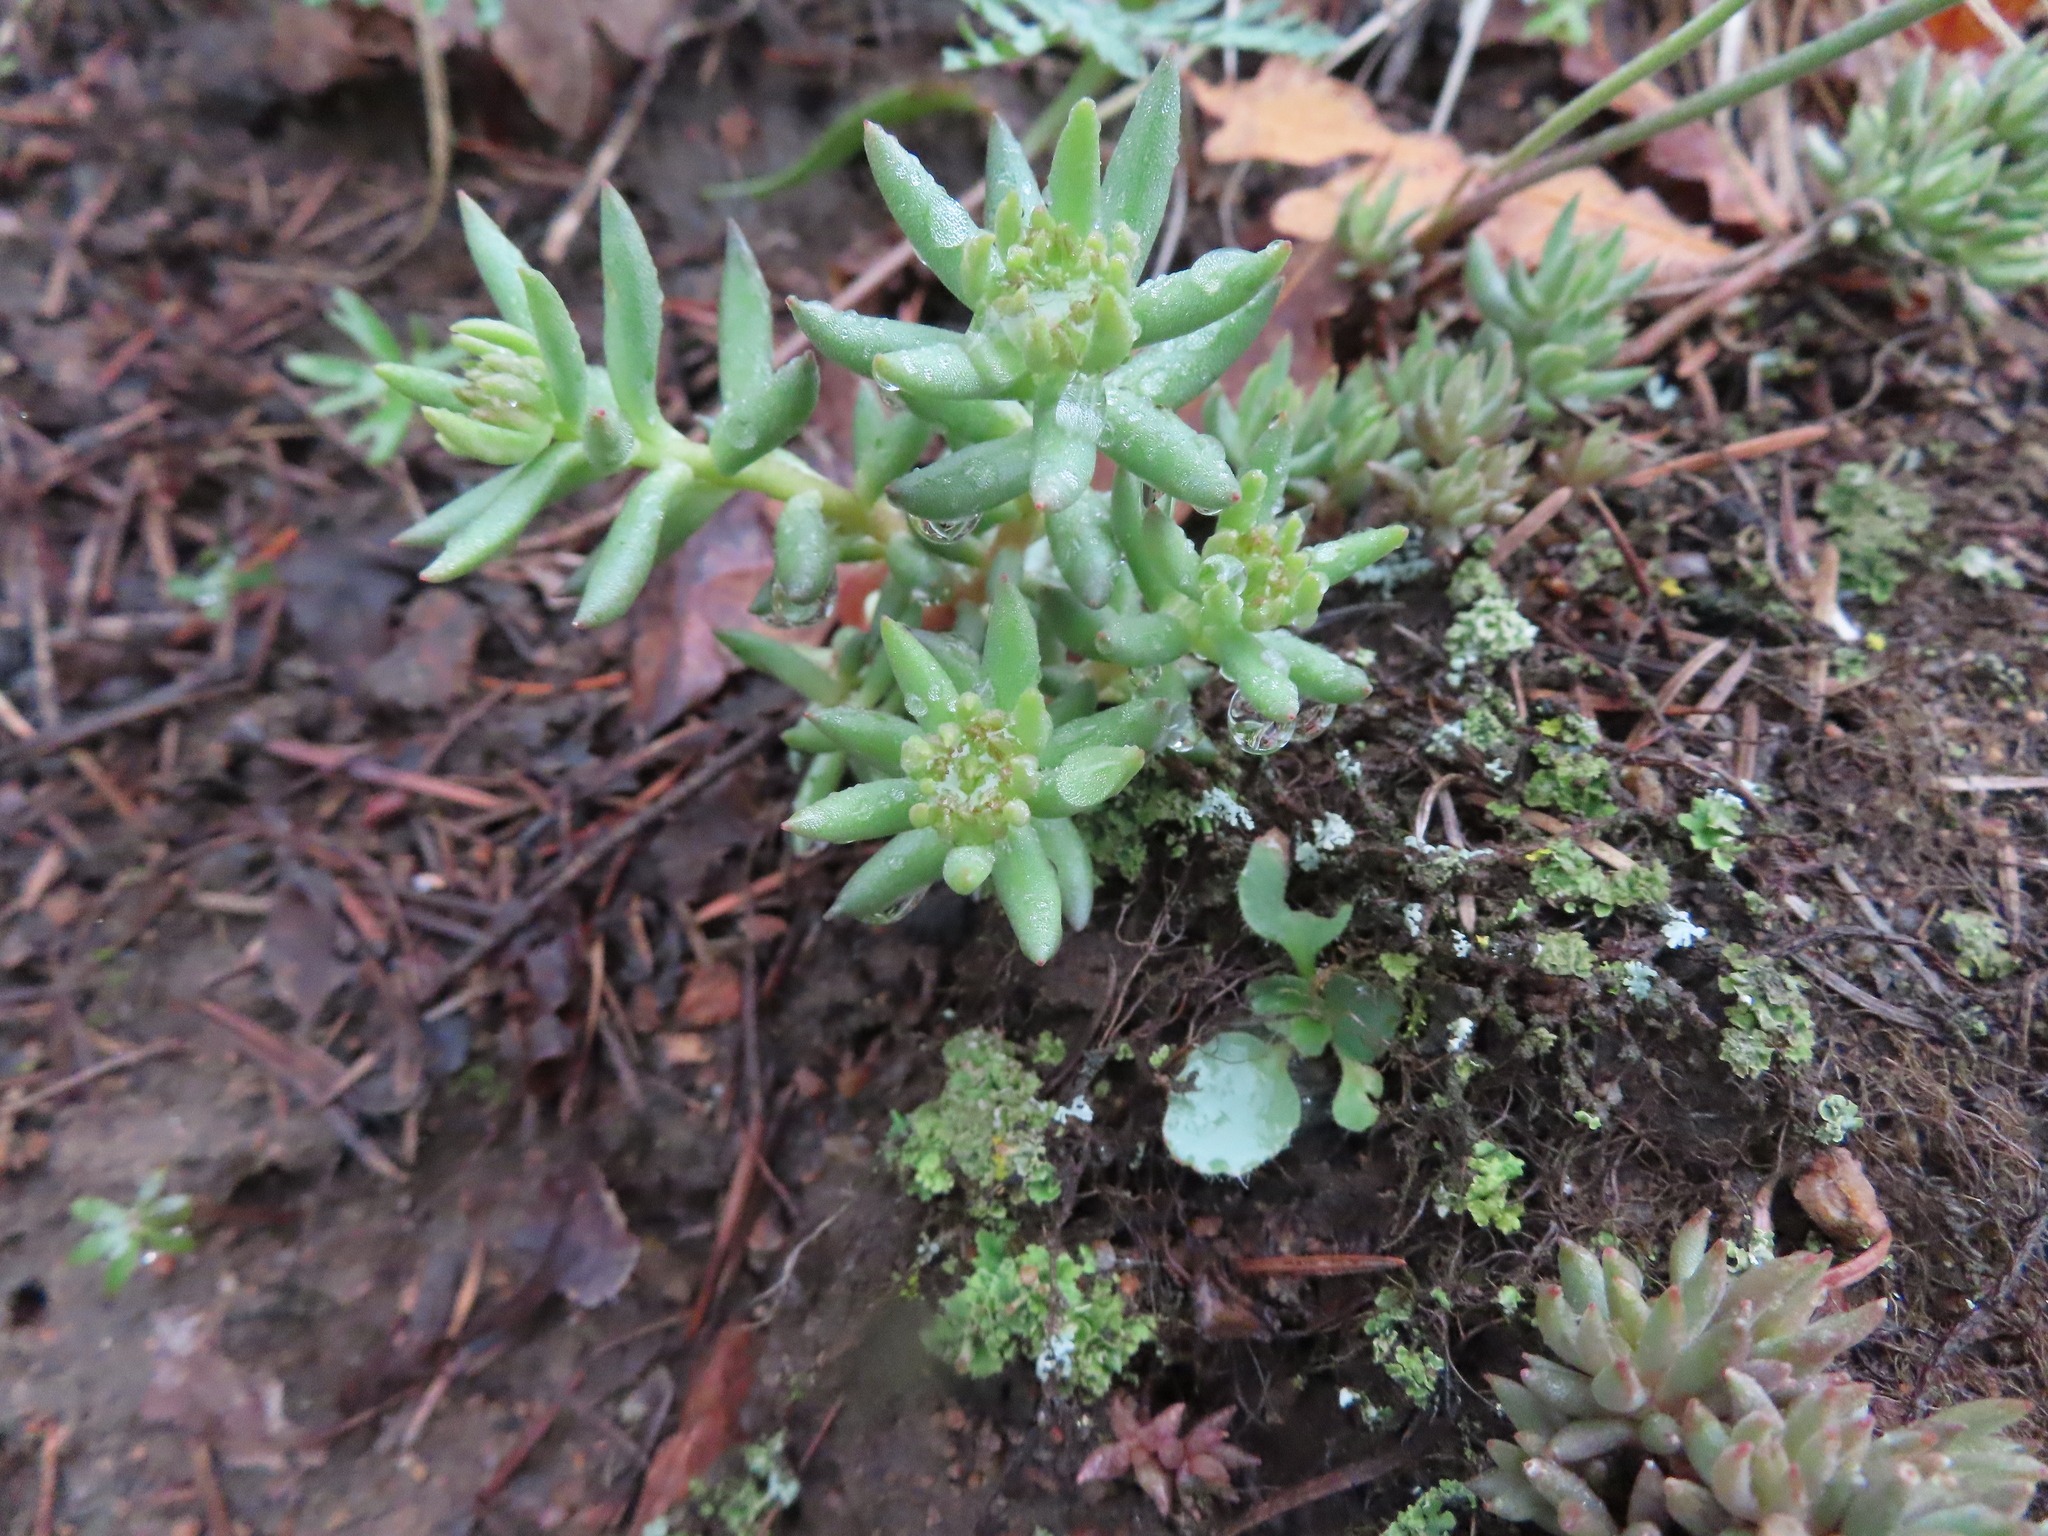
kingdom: Plantae
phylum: Tracheophyta
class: Magnoliopsida
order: Saxifragales
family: Crassulaceae
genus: Sedum
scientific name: Sedum lanceolatum
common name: Common stonecrop
